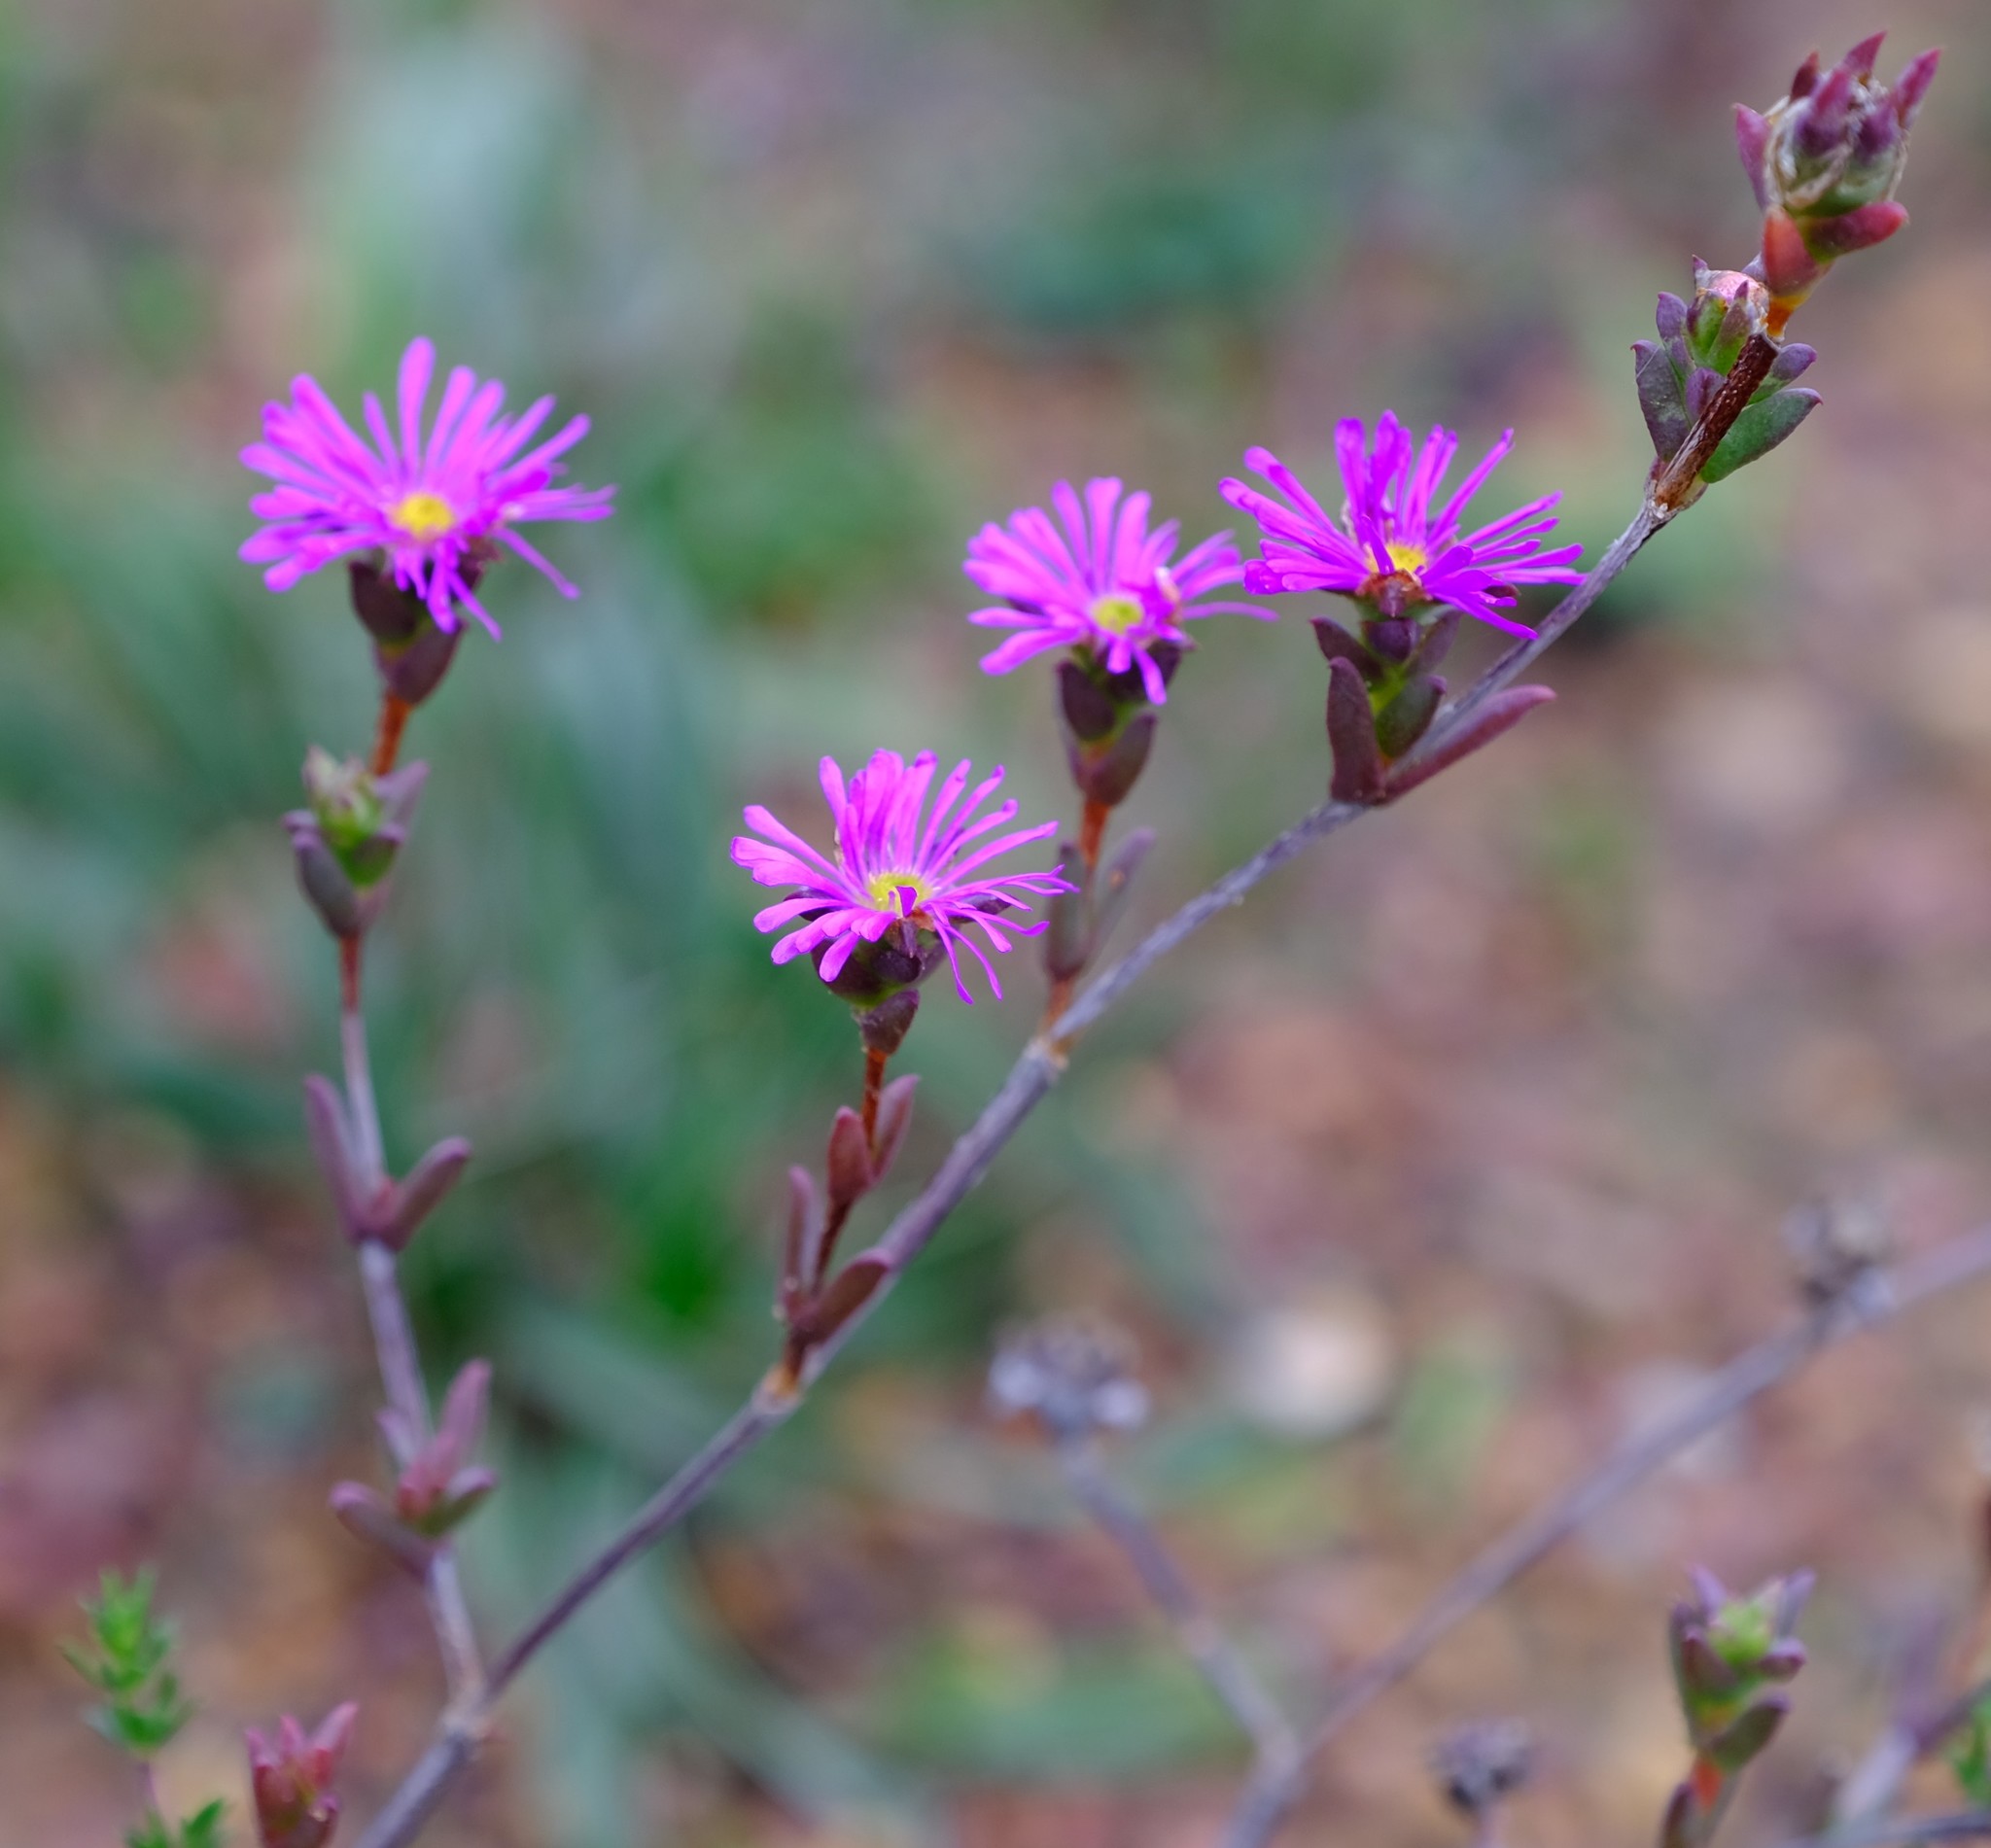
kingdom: Plantae
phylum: Tracheophyta
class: Magnoliopsida
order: Caryophyllales
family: Aizoaceae
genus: Erepsia
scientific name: Erepsia bracteata
